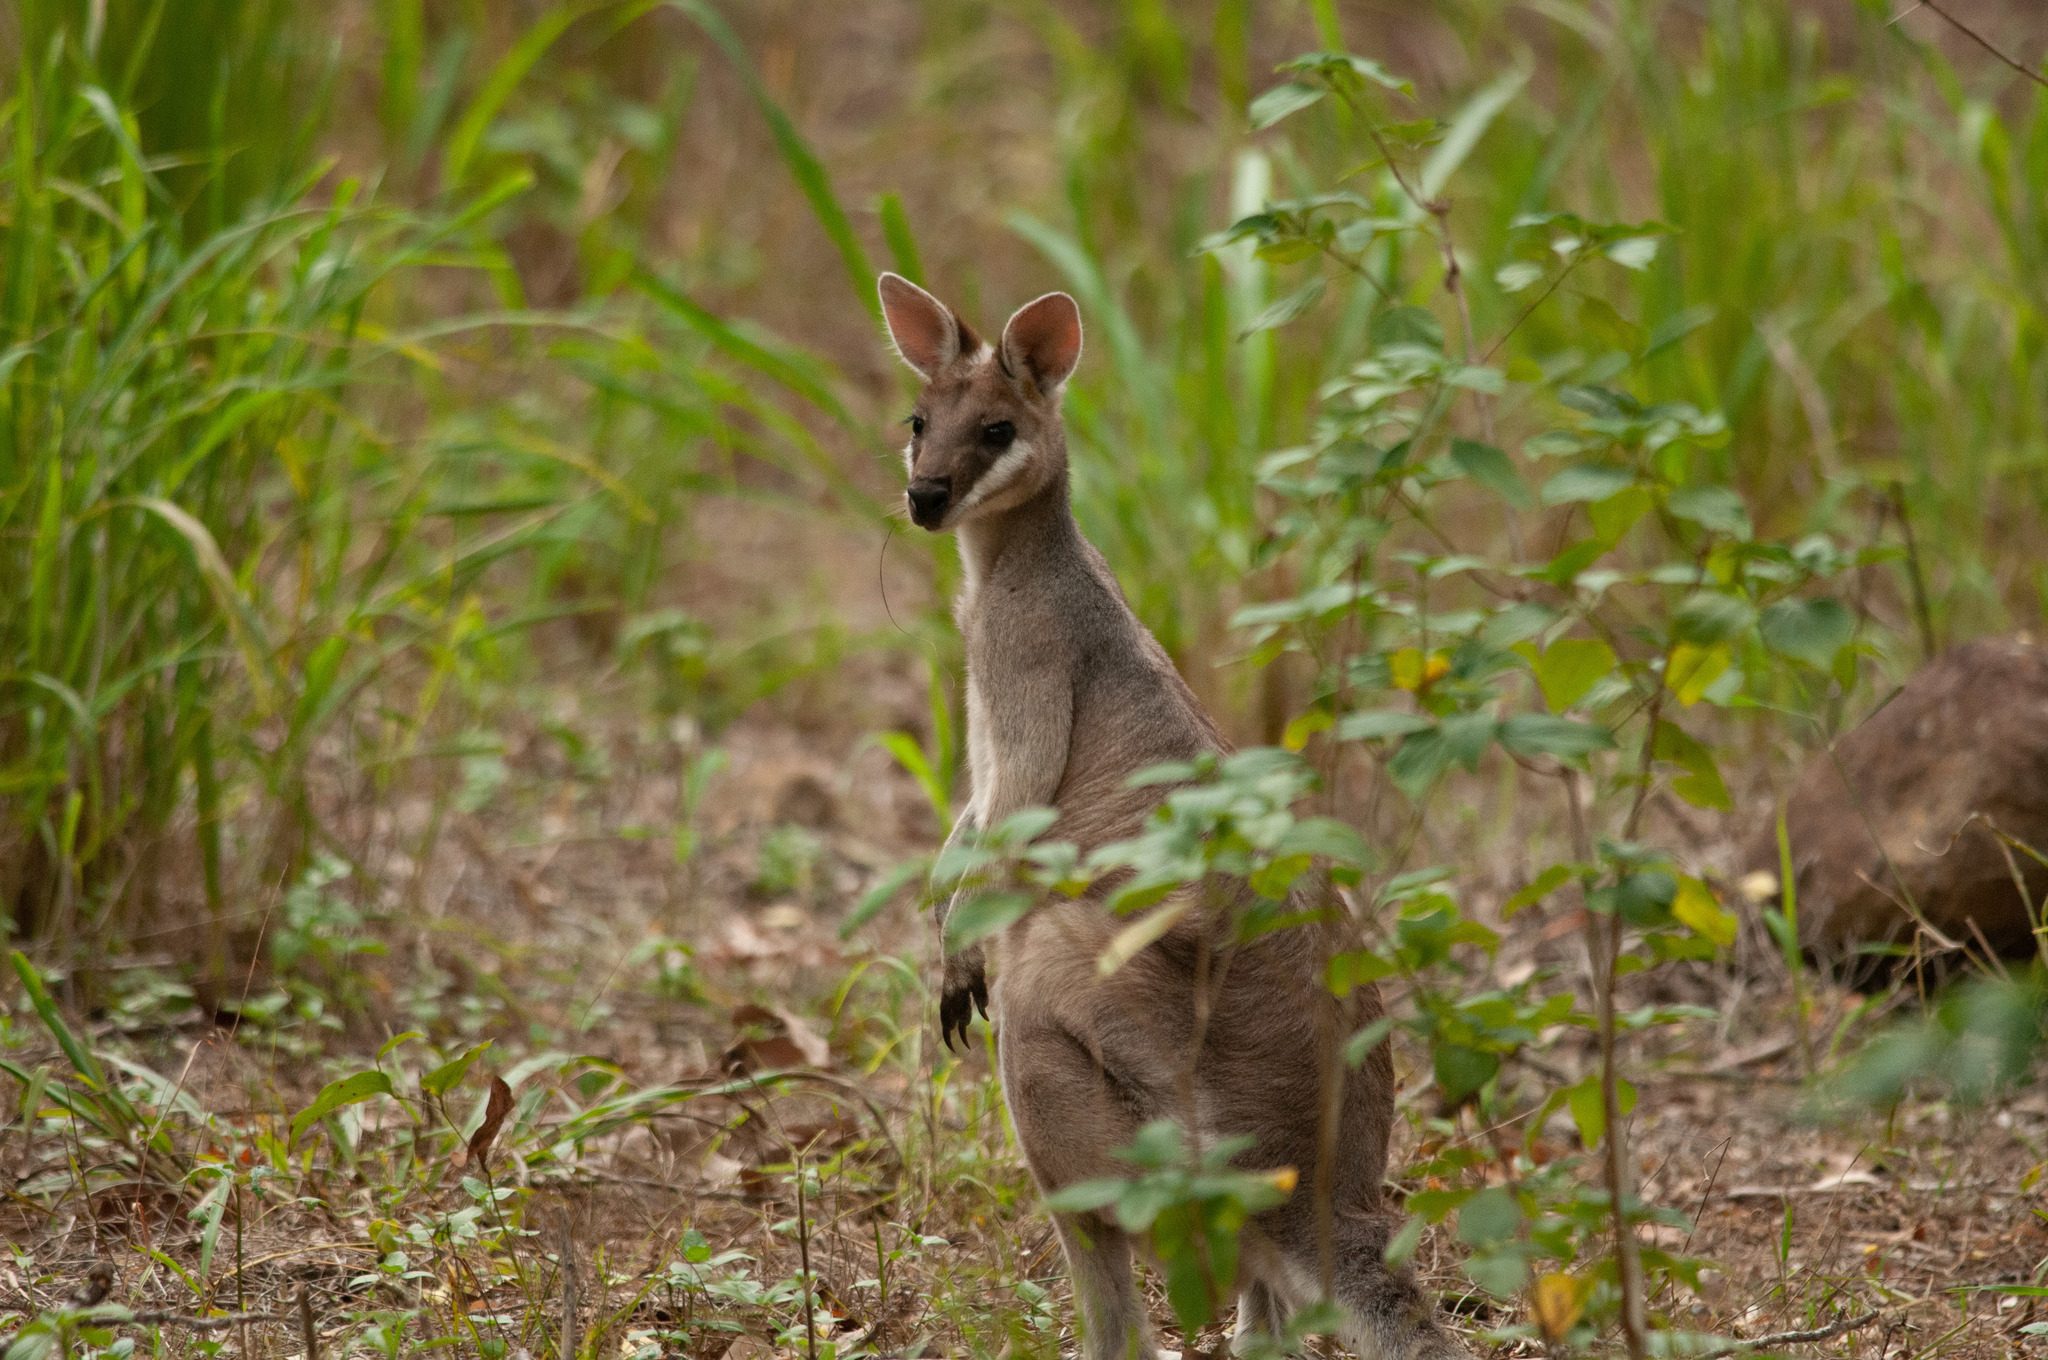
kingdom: Animalia
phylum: Chordata
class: Mammalia
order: Diprotodontia
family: Macropodidae
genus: Notamacropus
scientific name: Notamacropus parryi
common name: Whip-tailed wallaby
